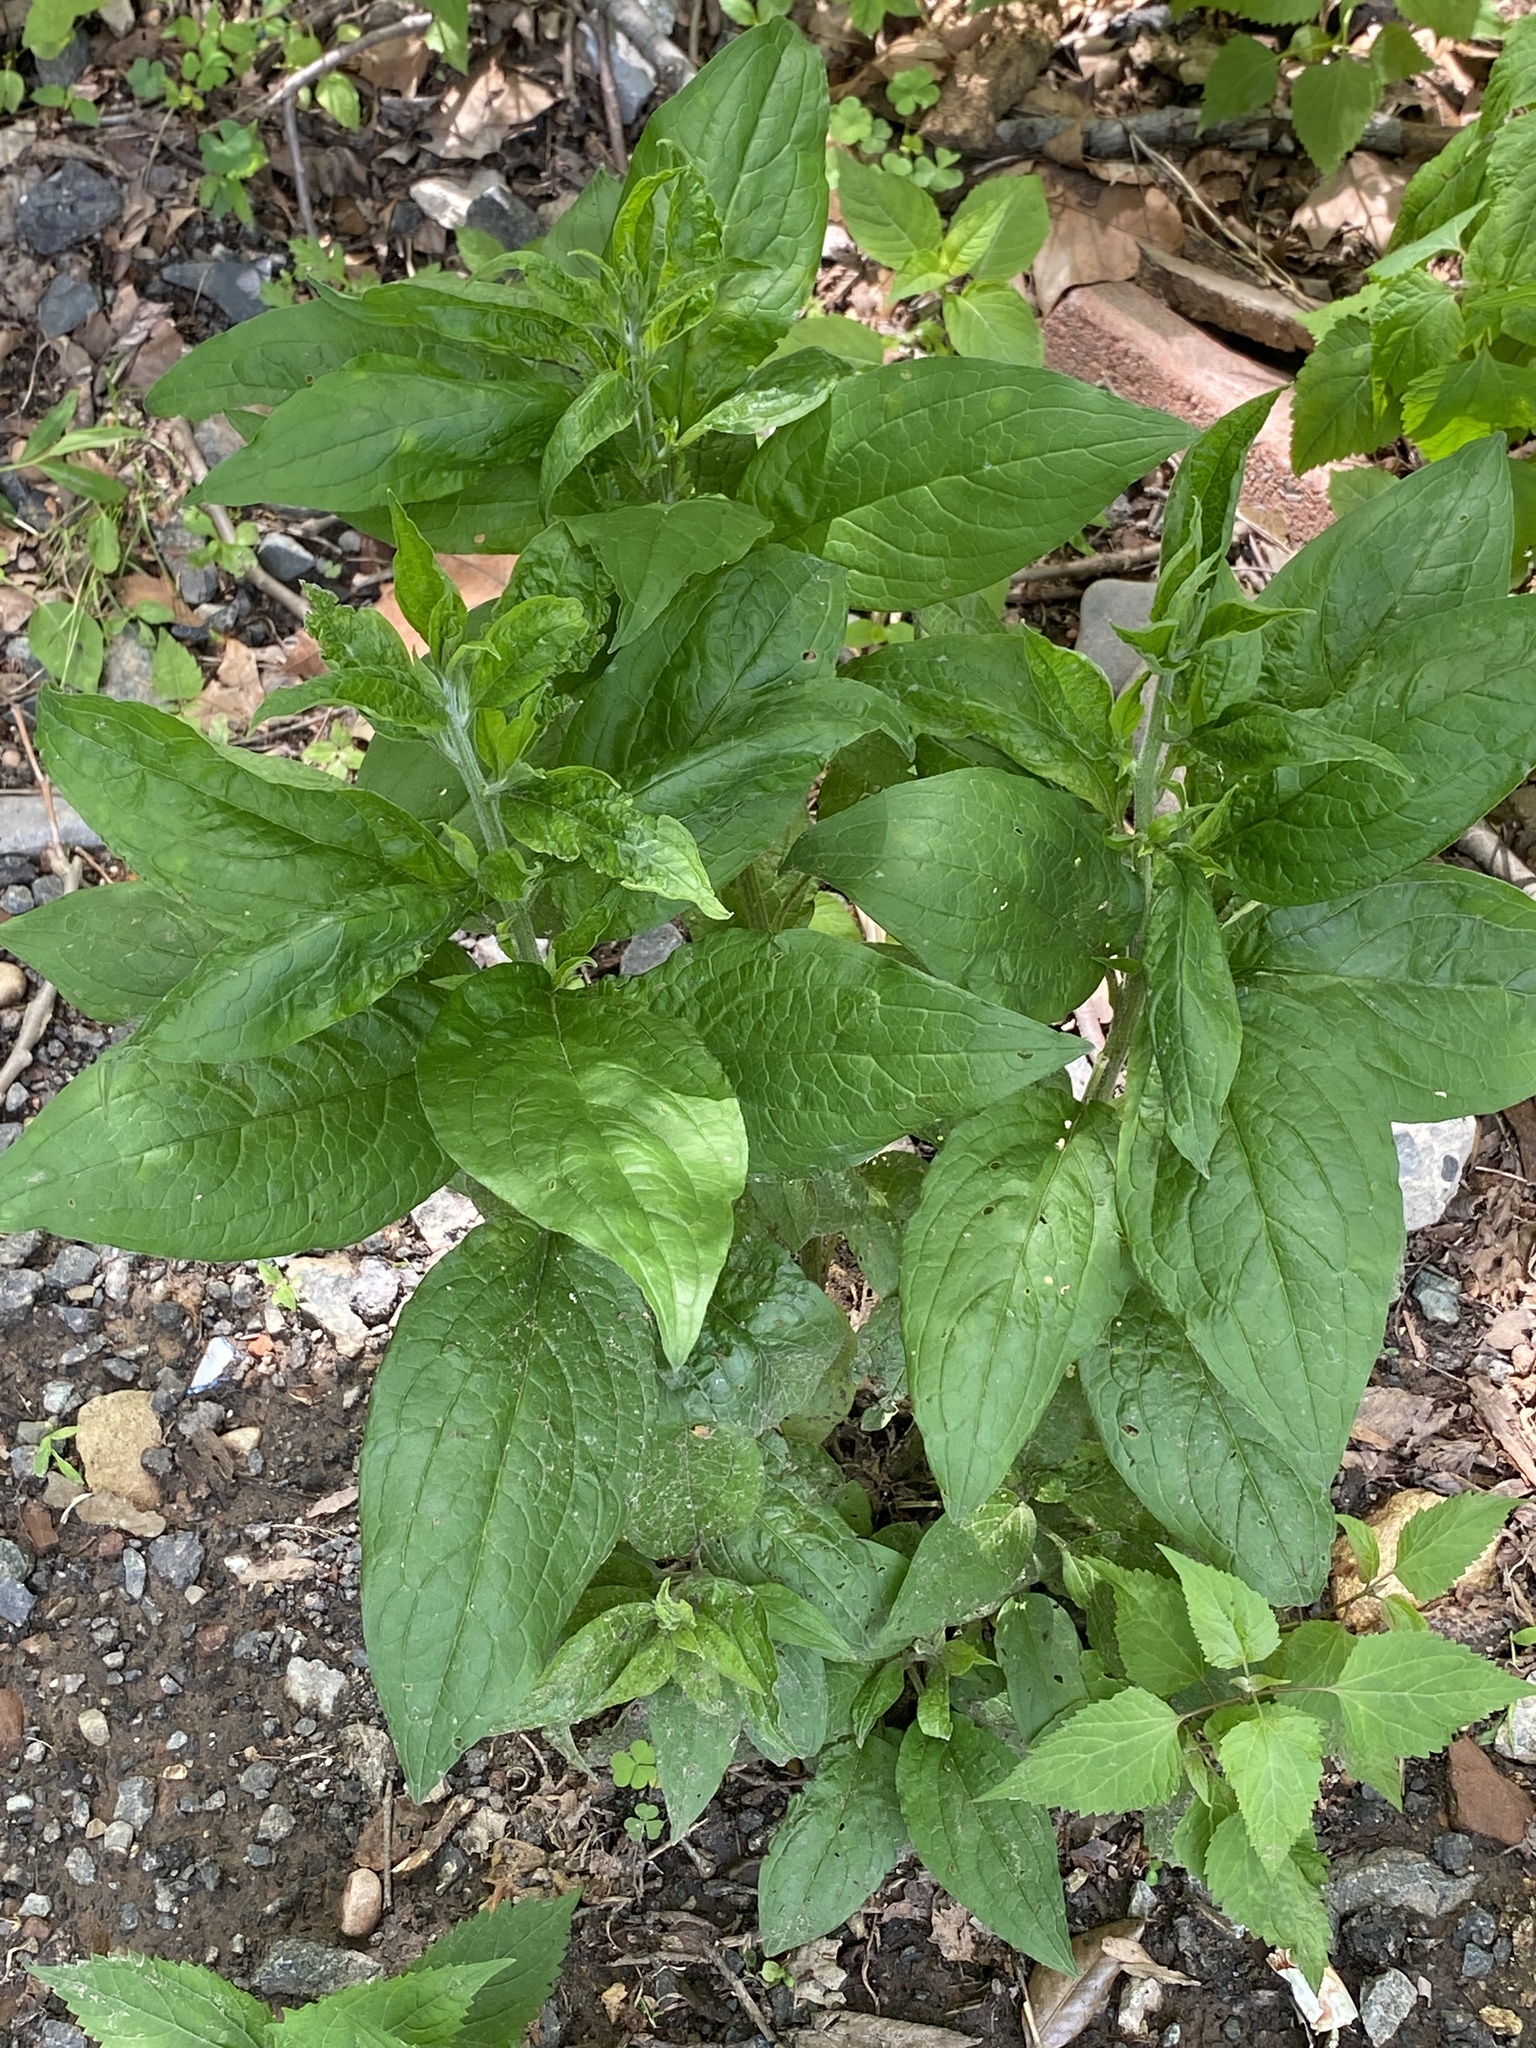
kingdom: Plantae
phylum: Tracheophyta
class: Magnoliopsida
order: Boraginales
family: Boraginaceae
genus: Hackelia
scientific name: Hackelia virginiana
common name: Beggar's-lice
